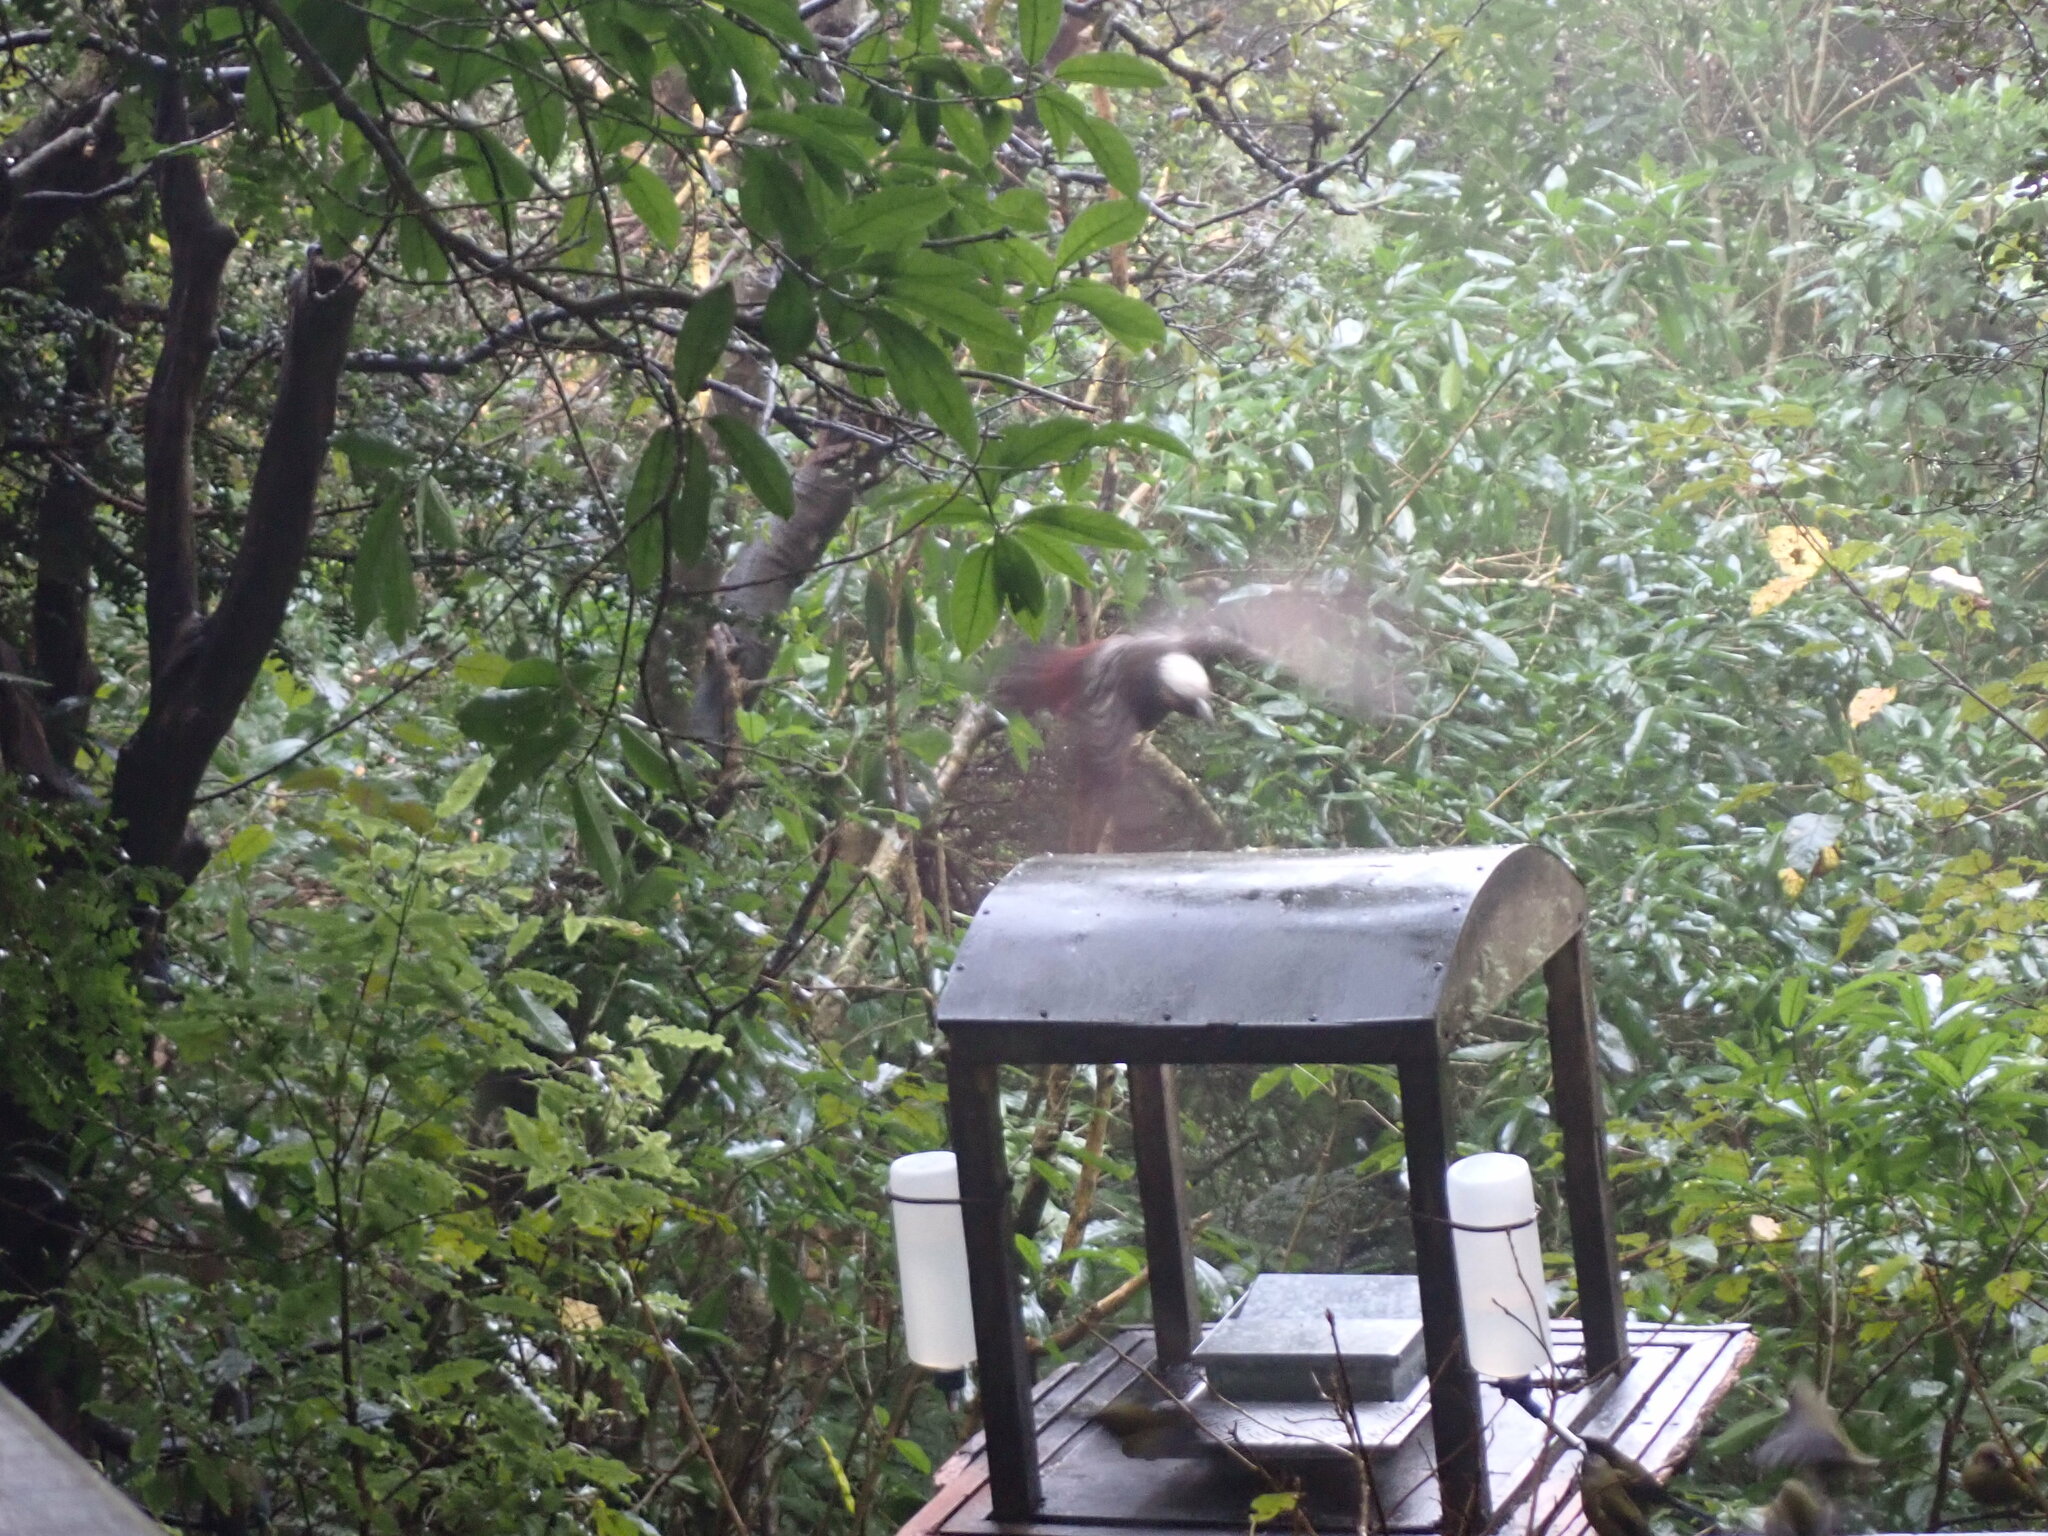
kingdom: Animalia
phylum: Chordata
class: Aves
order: Psittaciformes
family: Psittacidae
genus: Nestor
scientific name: Nestor meridionalis
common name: New zealand kaka
